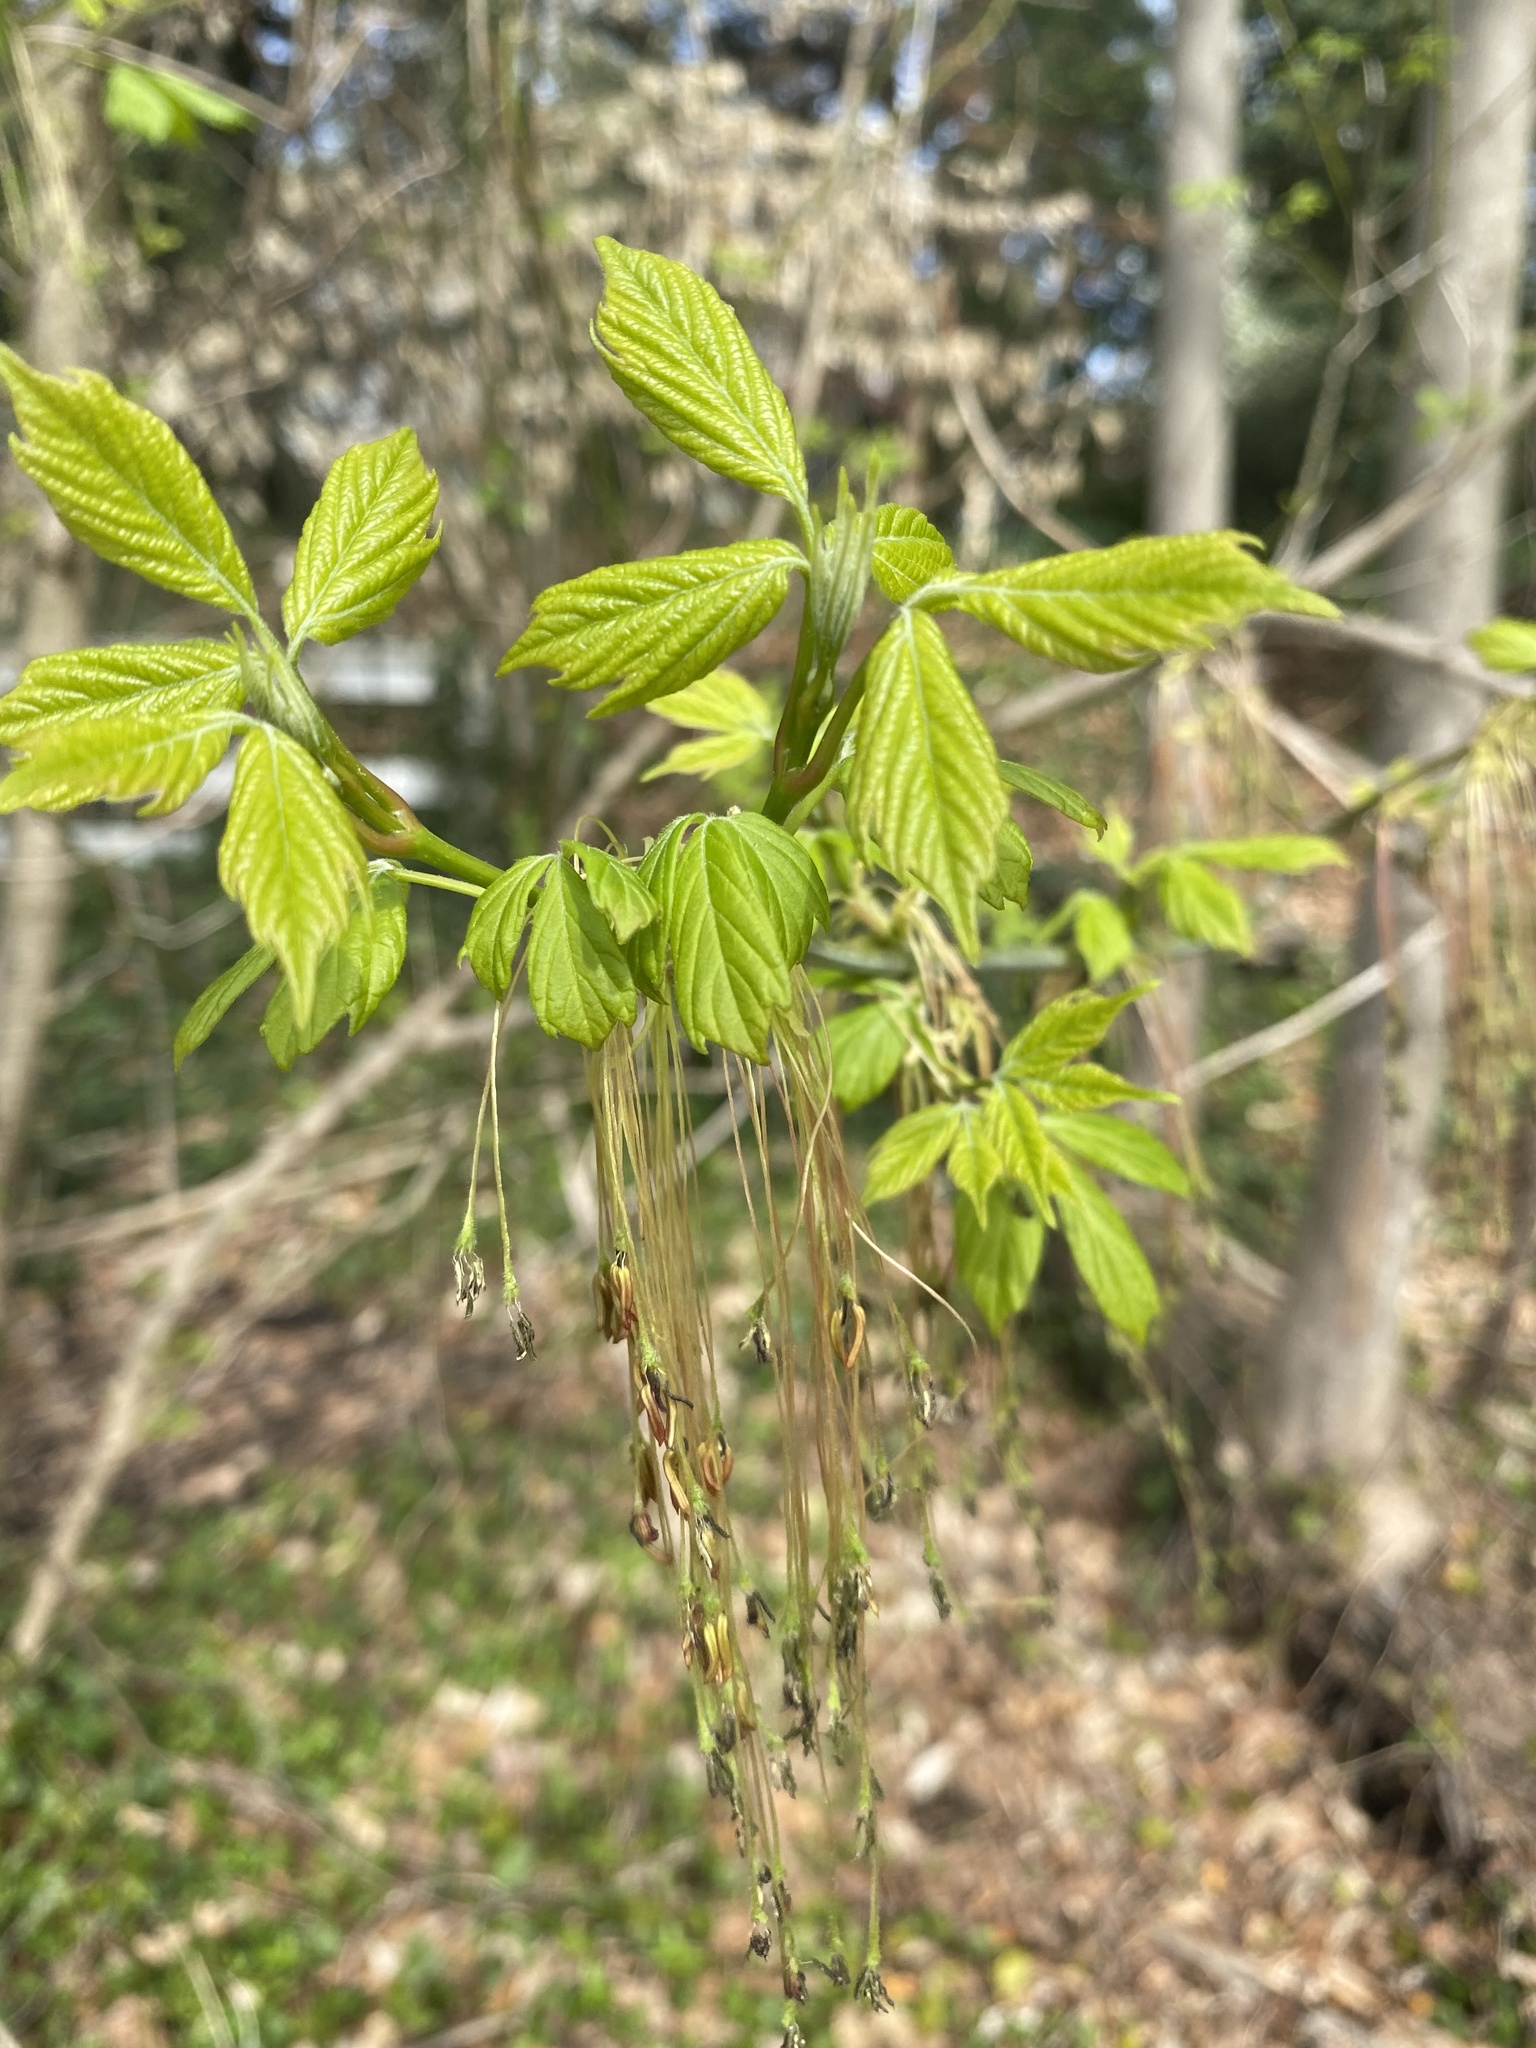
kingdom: Plantae
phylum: Tracheophyta
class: Magnoliopsida
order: Sapindales
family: Sapindaceae
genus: Acer
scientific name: Acer negundo
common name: Ashleaf maple
